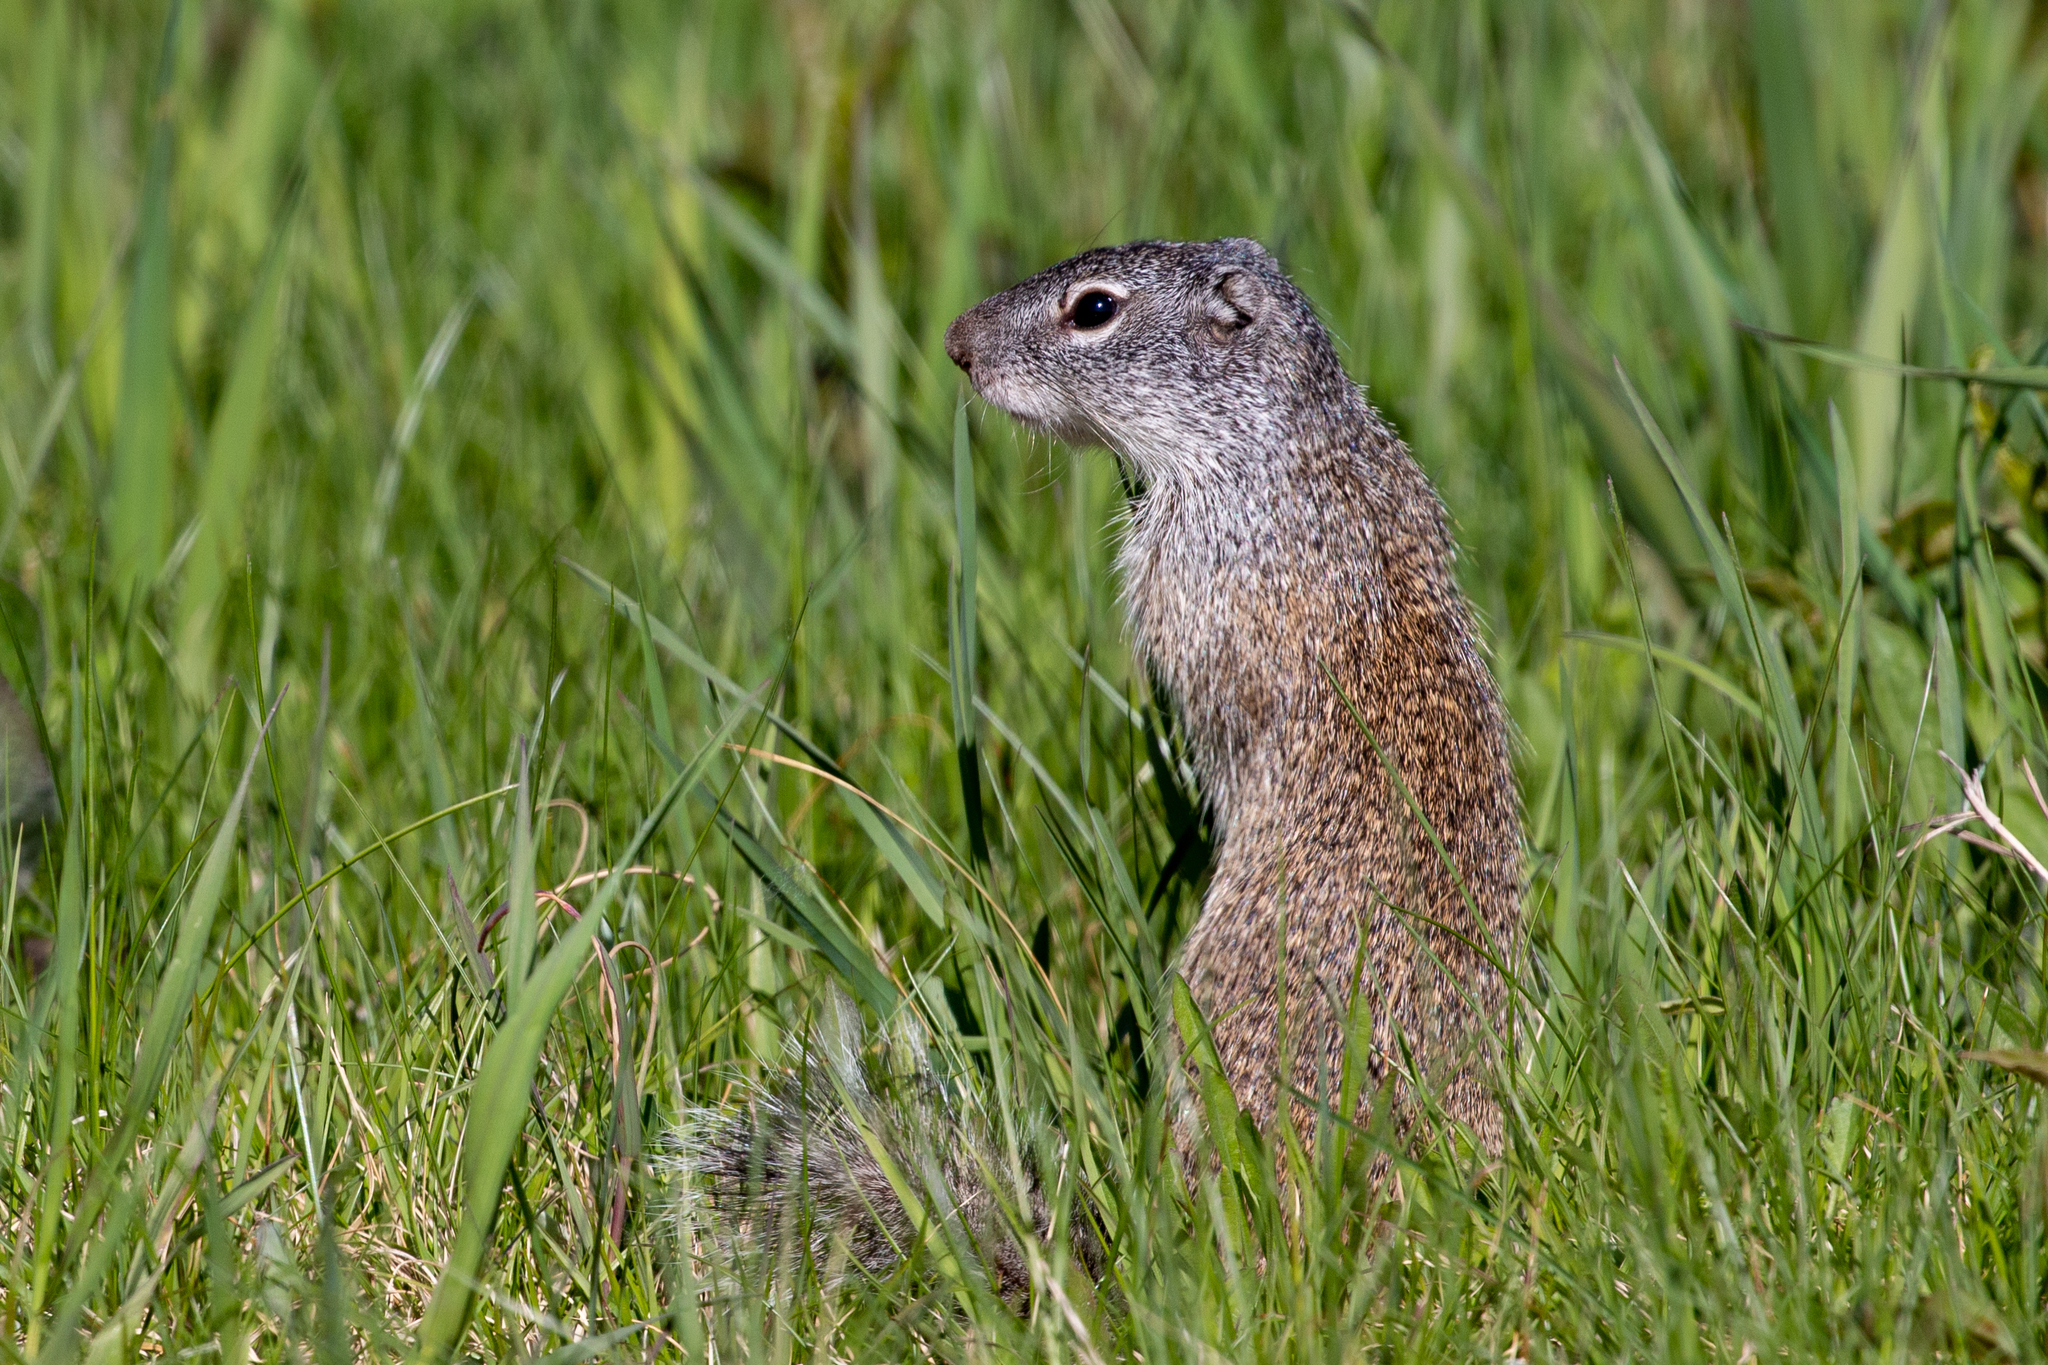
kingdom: Animalia
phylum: Chordata
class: Mammalia
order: Rodentia
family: Sciuridae
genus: Poliocitellus
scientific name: Poliocitellus franklinii
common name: Franklin's ground squirrel
